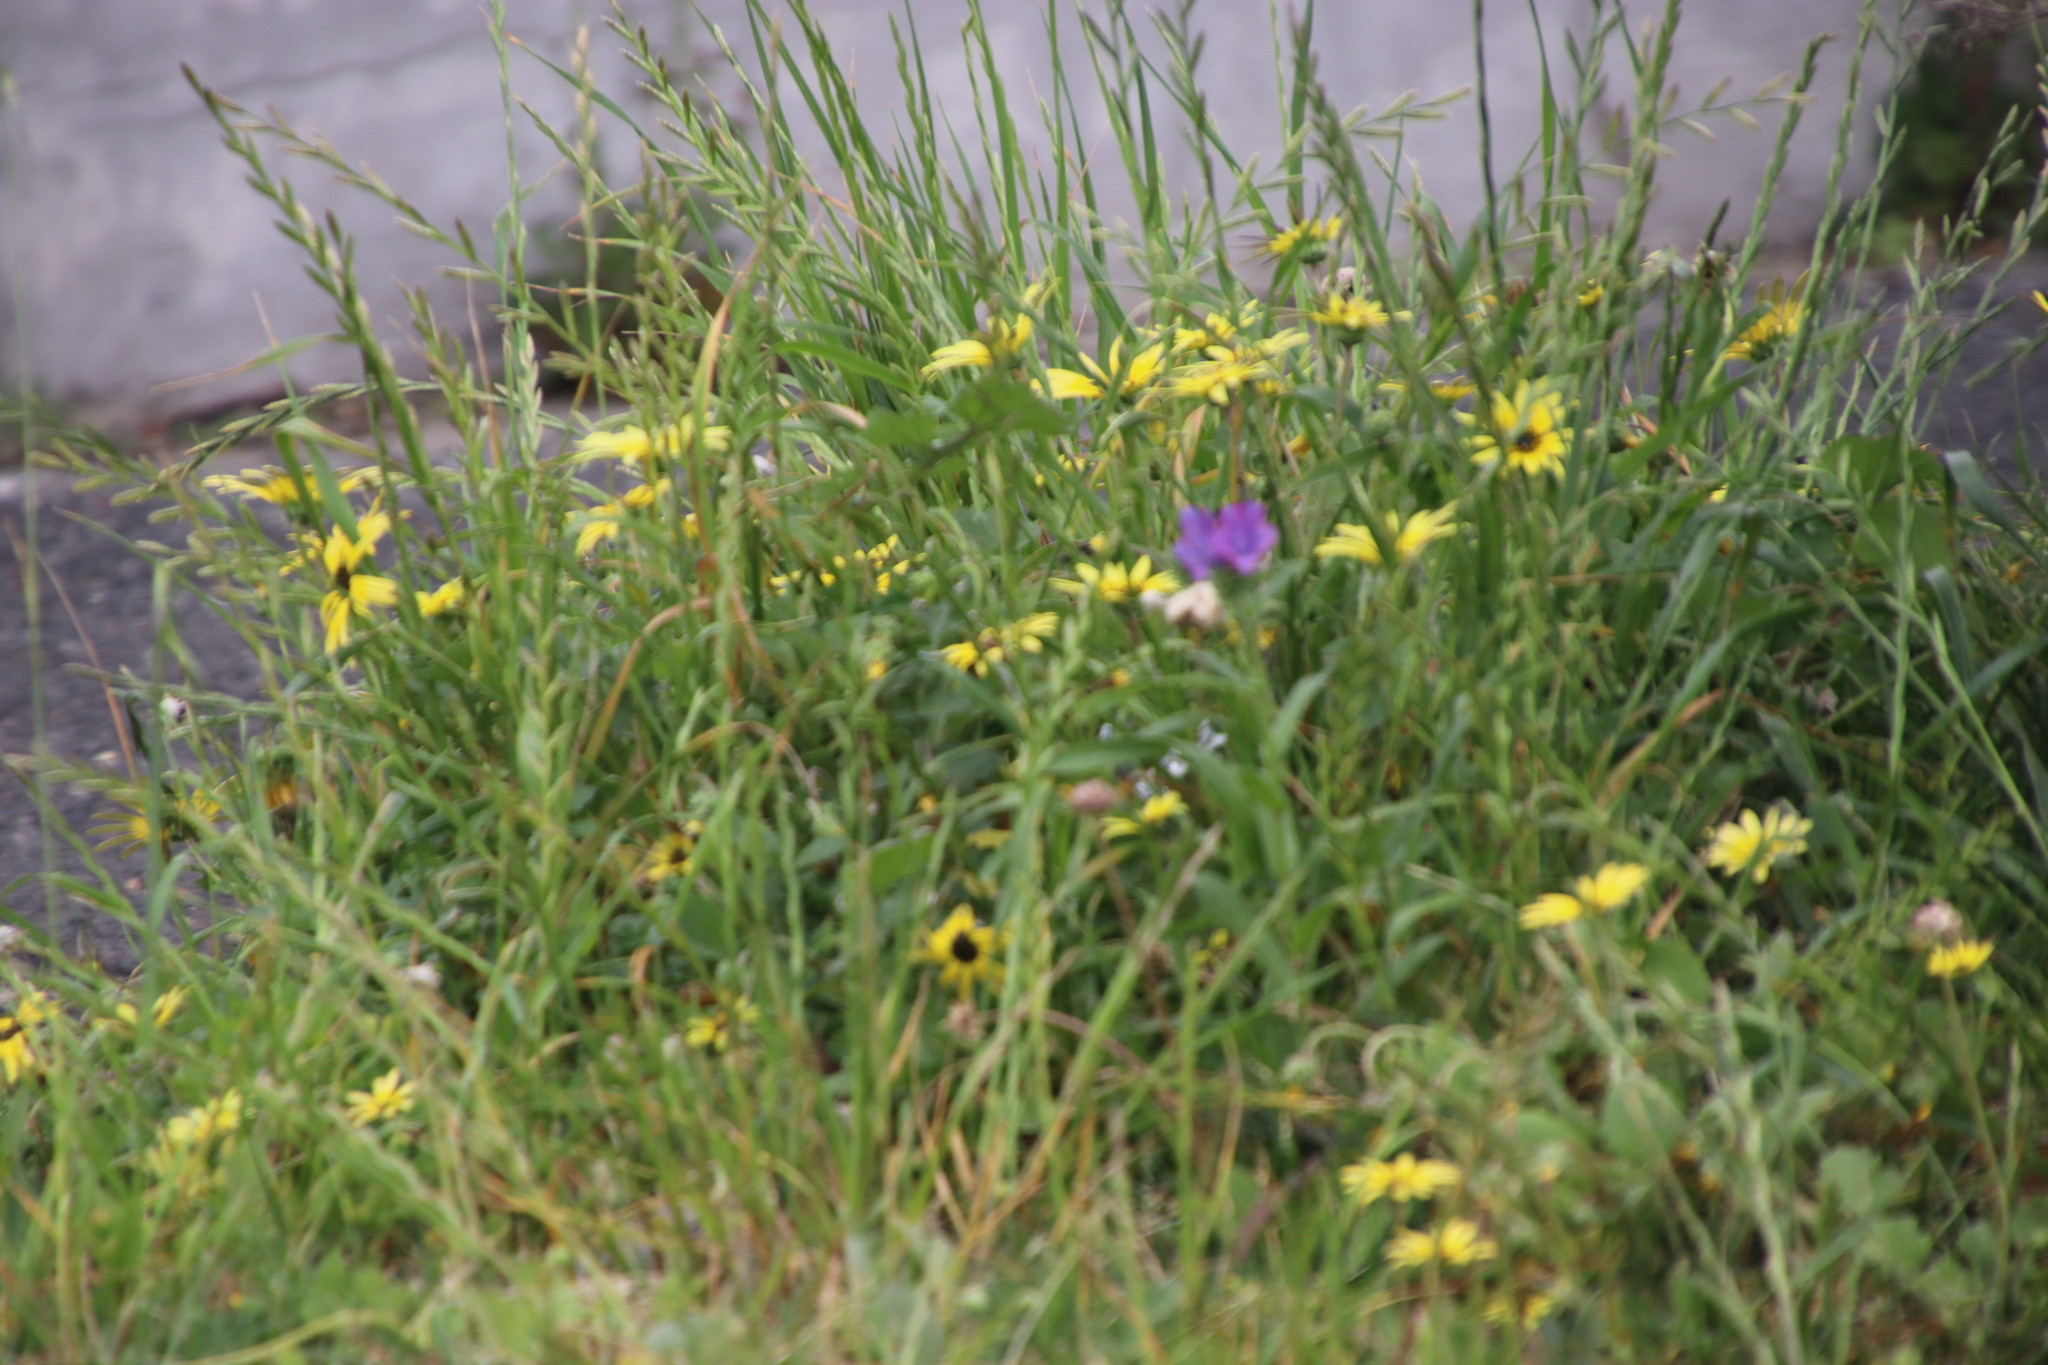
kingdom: Plantae
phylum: Tracheophyta
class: Magnoliopsida
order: Asterales
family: Asteraceae
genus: Arctotheca
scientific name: Arctotheca calendula
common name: Capeweed
